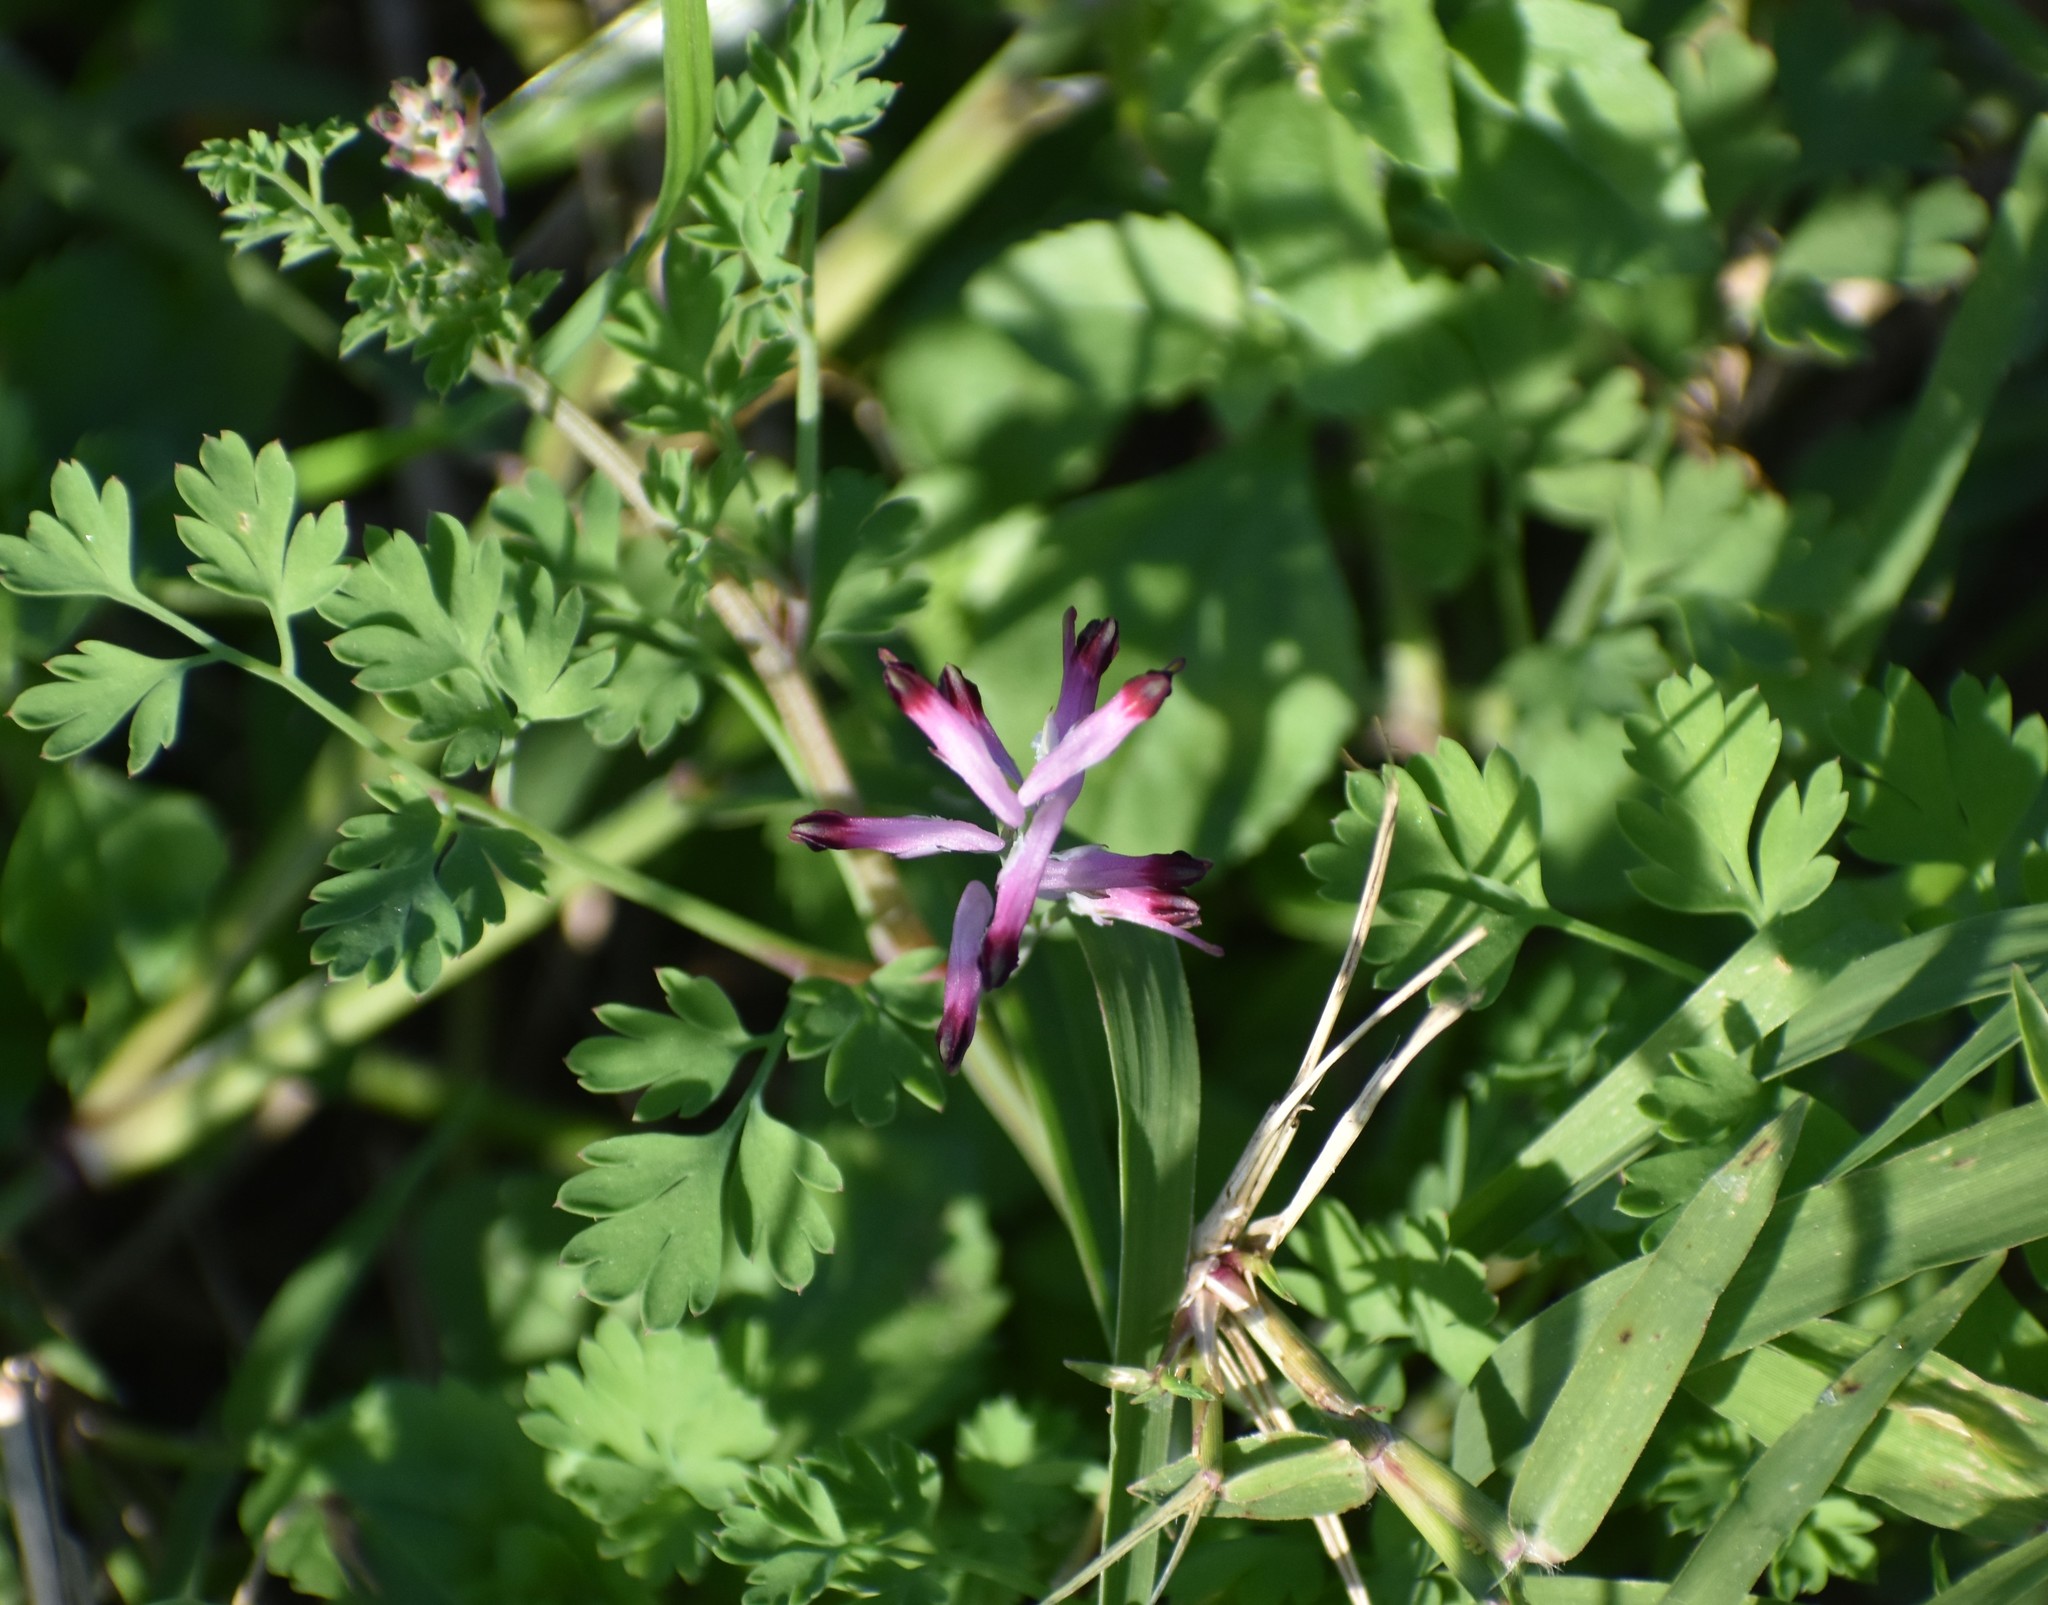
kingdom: Plantae
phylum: Tracheophyta
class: Magnoliopsida
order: Ranunculales
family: Papaveraceae
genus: Fumaria
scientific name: Fumaria muralis
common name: Common ramping-fumitory
